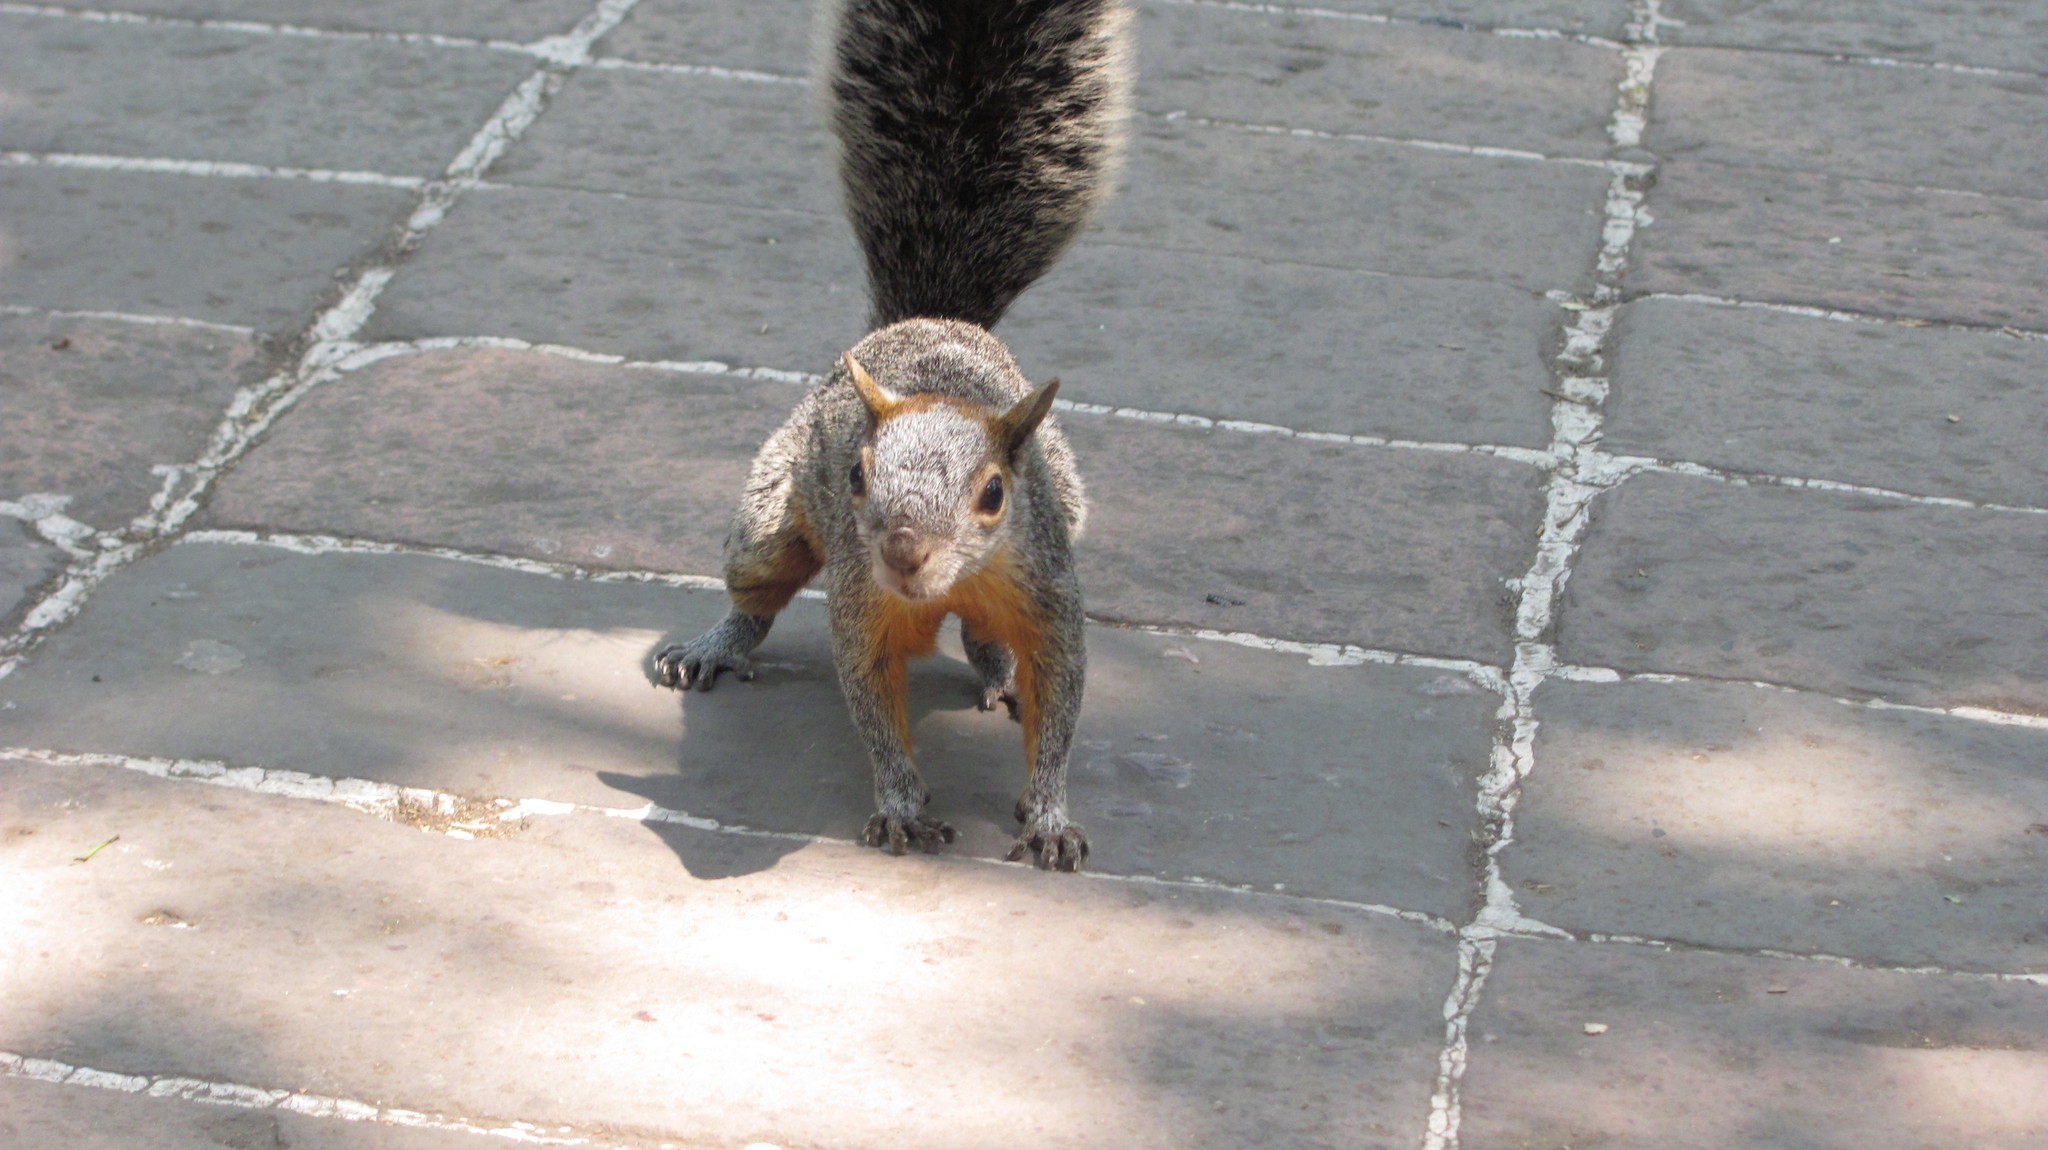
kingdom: Animalia
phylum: Chordata
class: Mammalia
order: Rodentia
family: Sciuridae
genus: Sciurus
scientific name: Sciurus aureogaster
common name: Red-bellied squirrel
